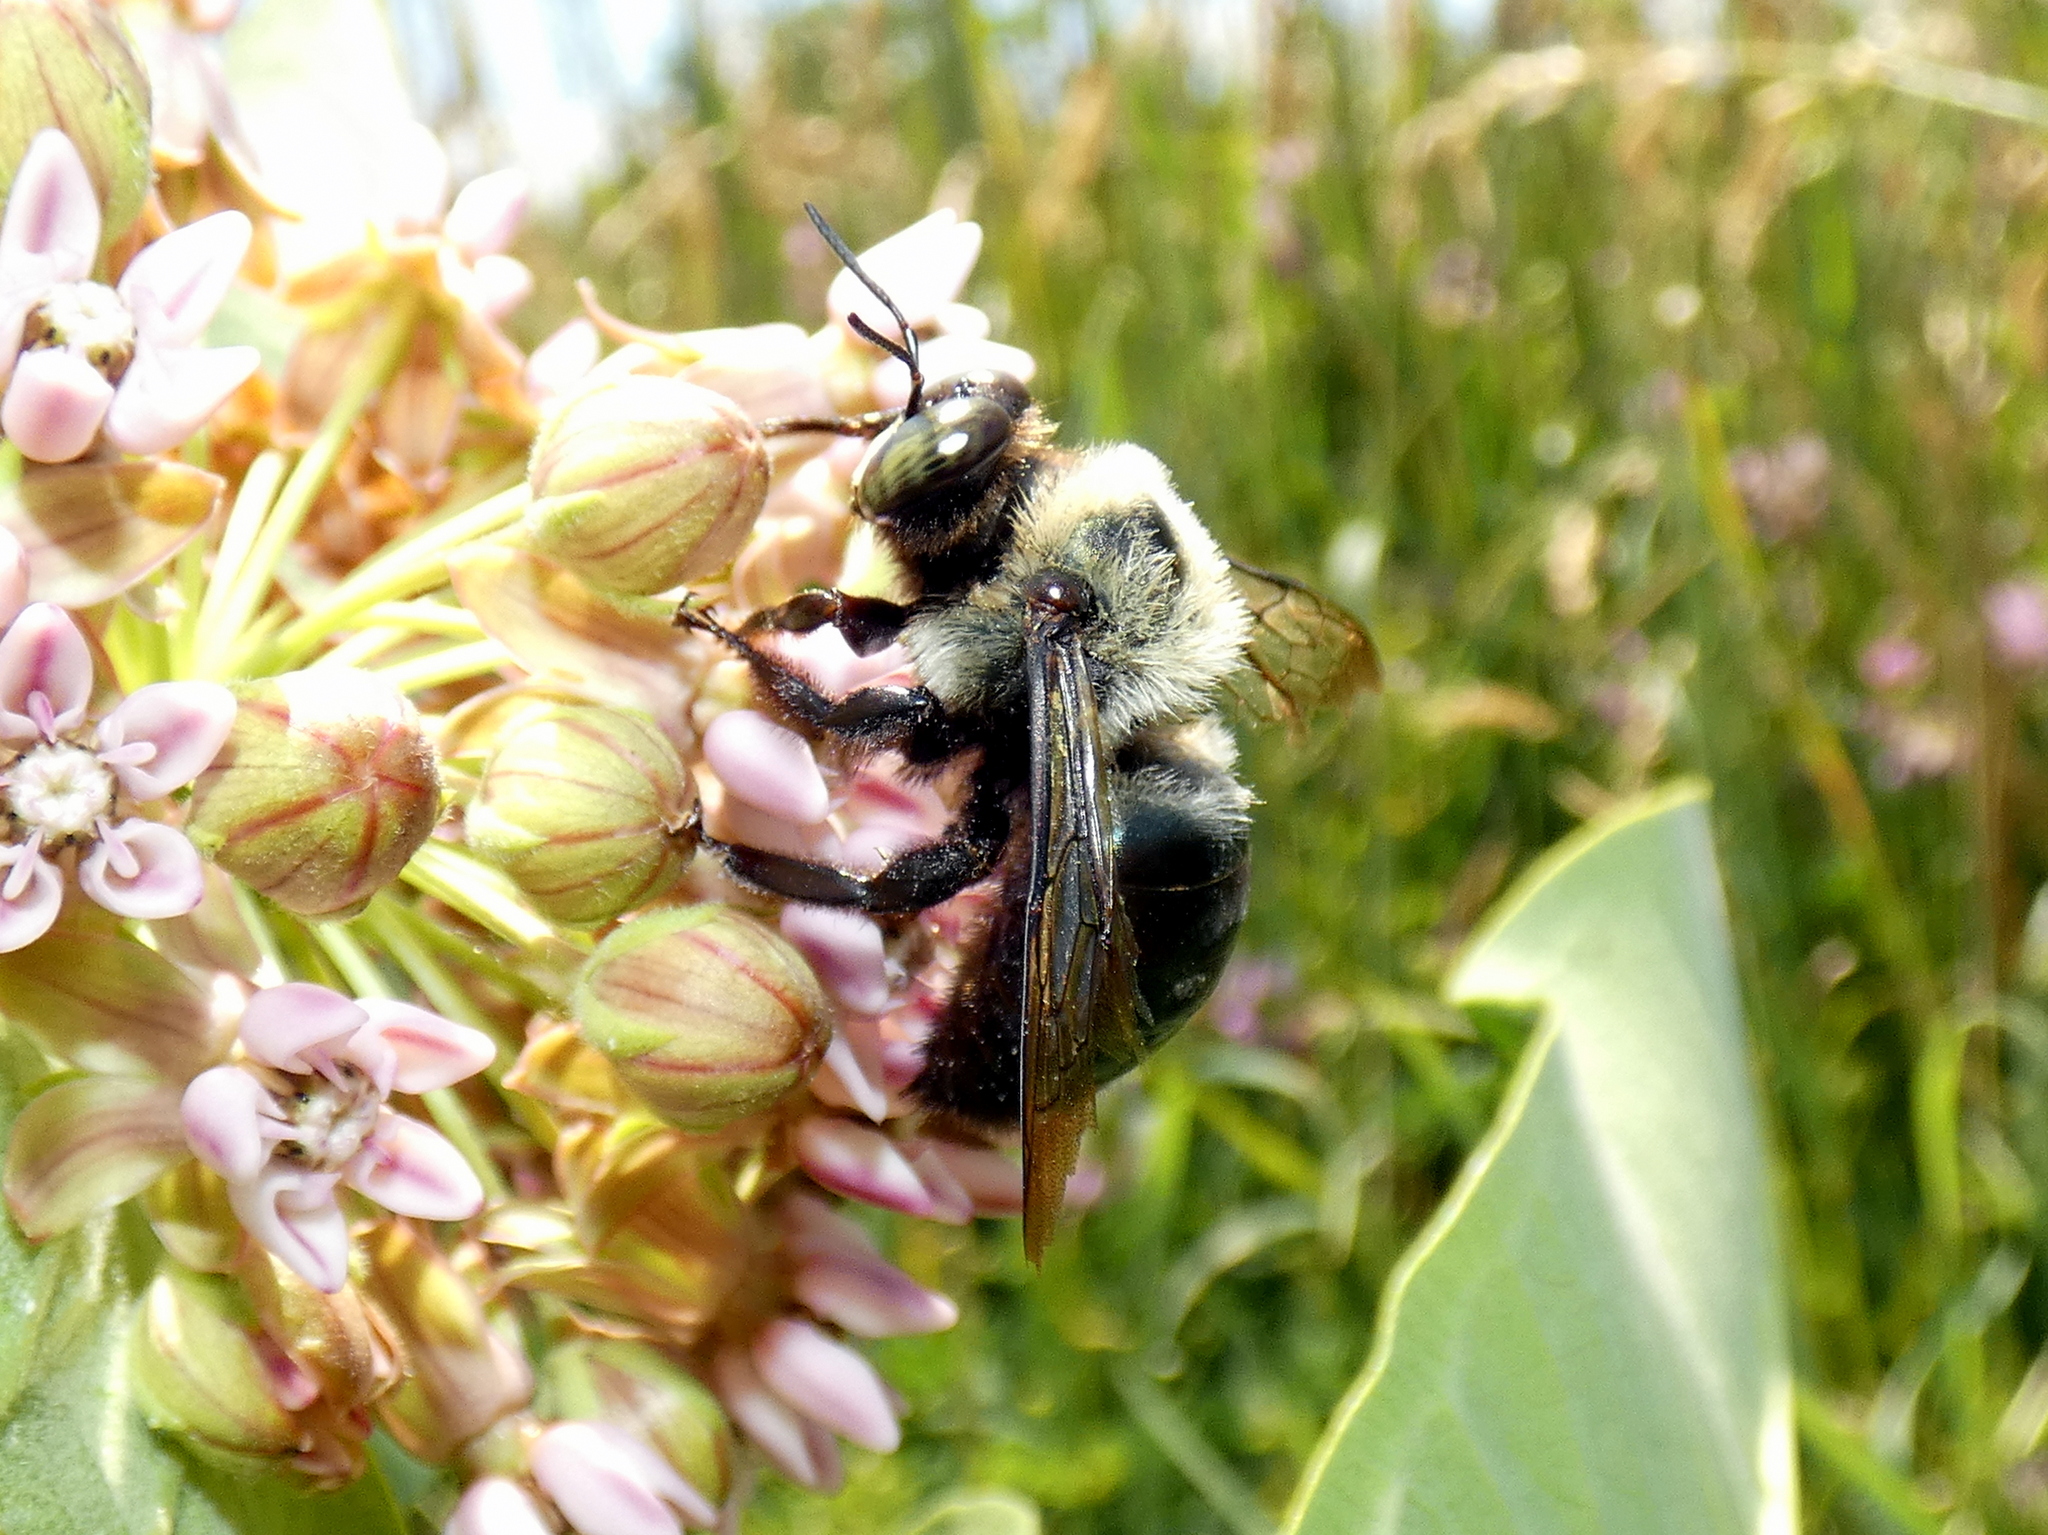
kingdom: Animalia
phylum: Arthropoda
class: Insecta
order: Hymenoptera
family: Apidae
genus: Xylocopa
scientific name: Xylocopa virginica
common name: Carpenter bee
